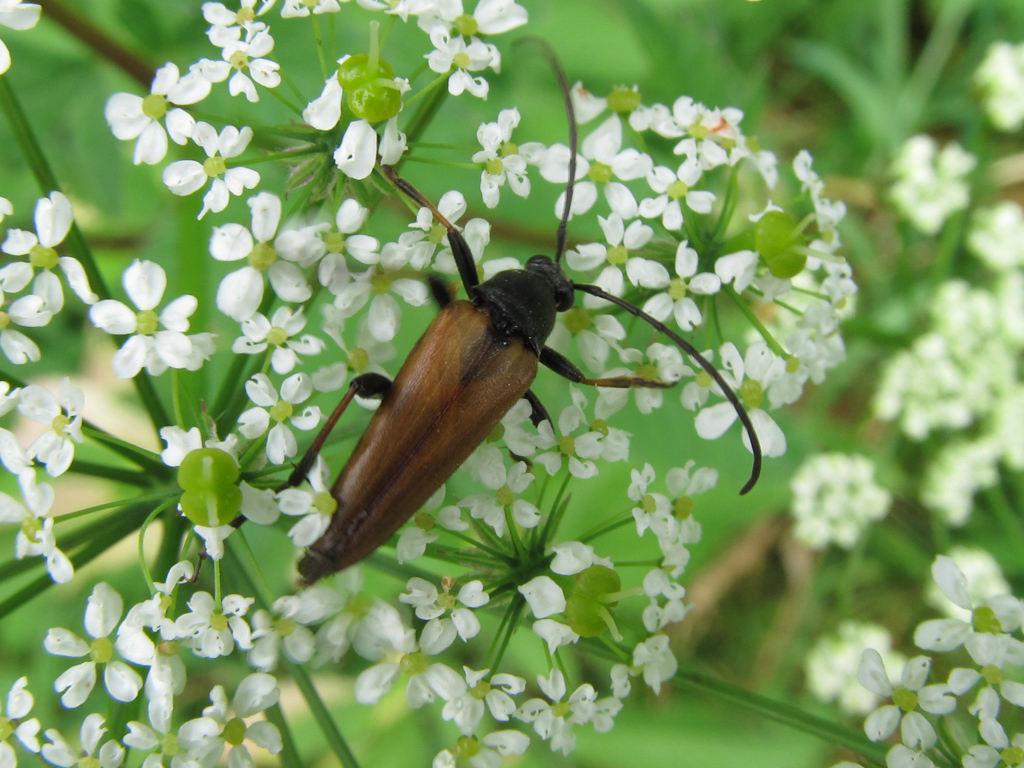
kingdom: Animalia
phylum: Arthropoda
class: Insecta
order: Coleoptera
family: Cerambycidae
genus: Etorofus
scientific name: Etorofus pubescens
